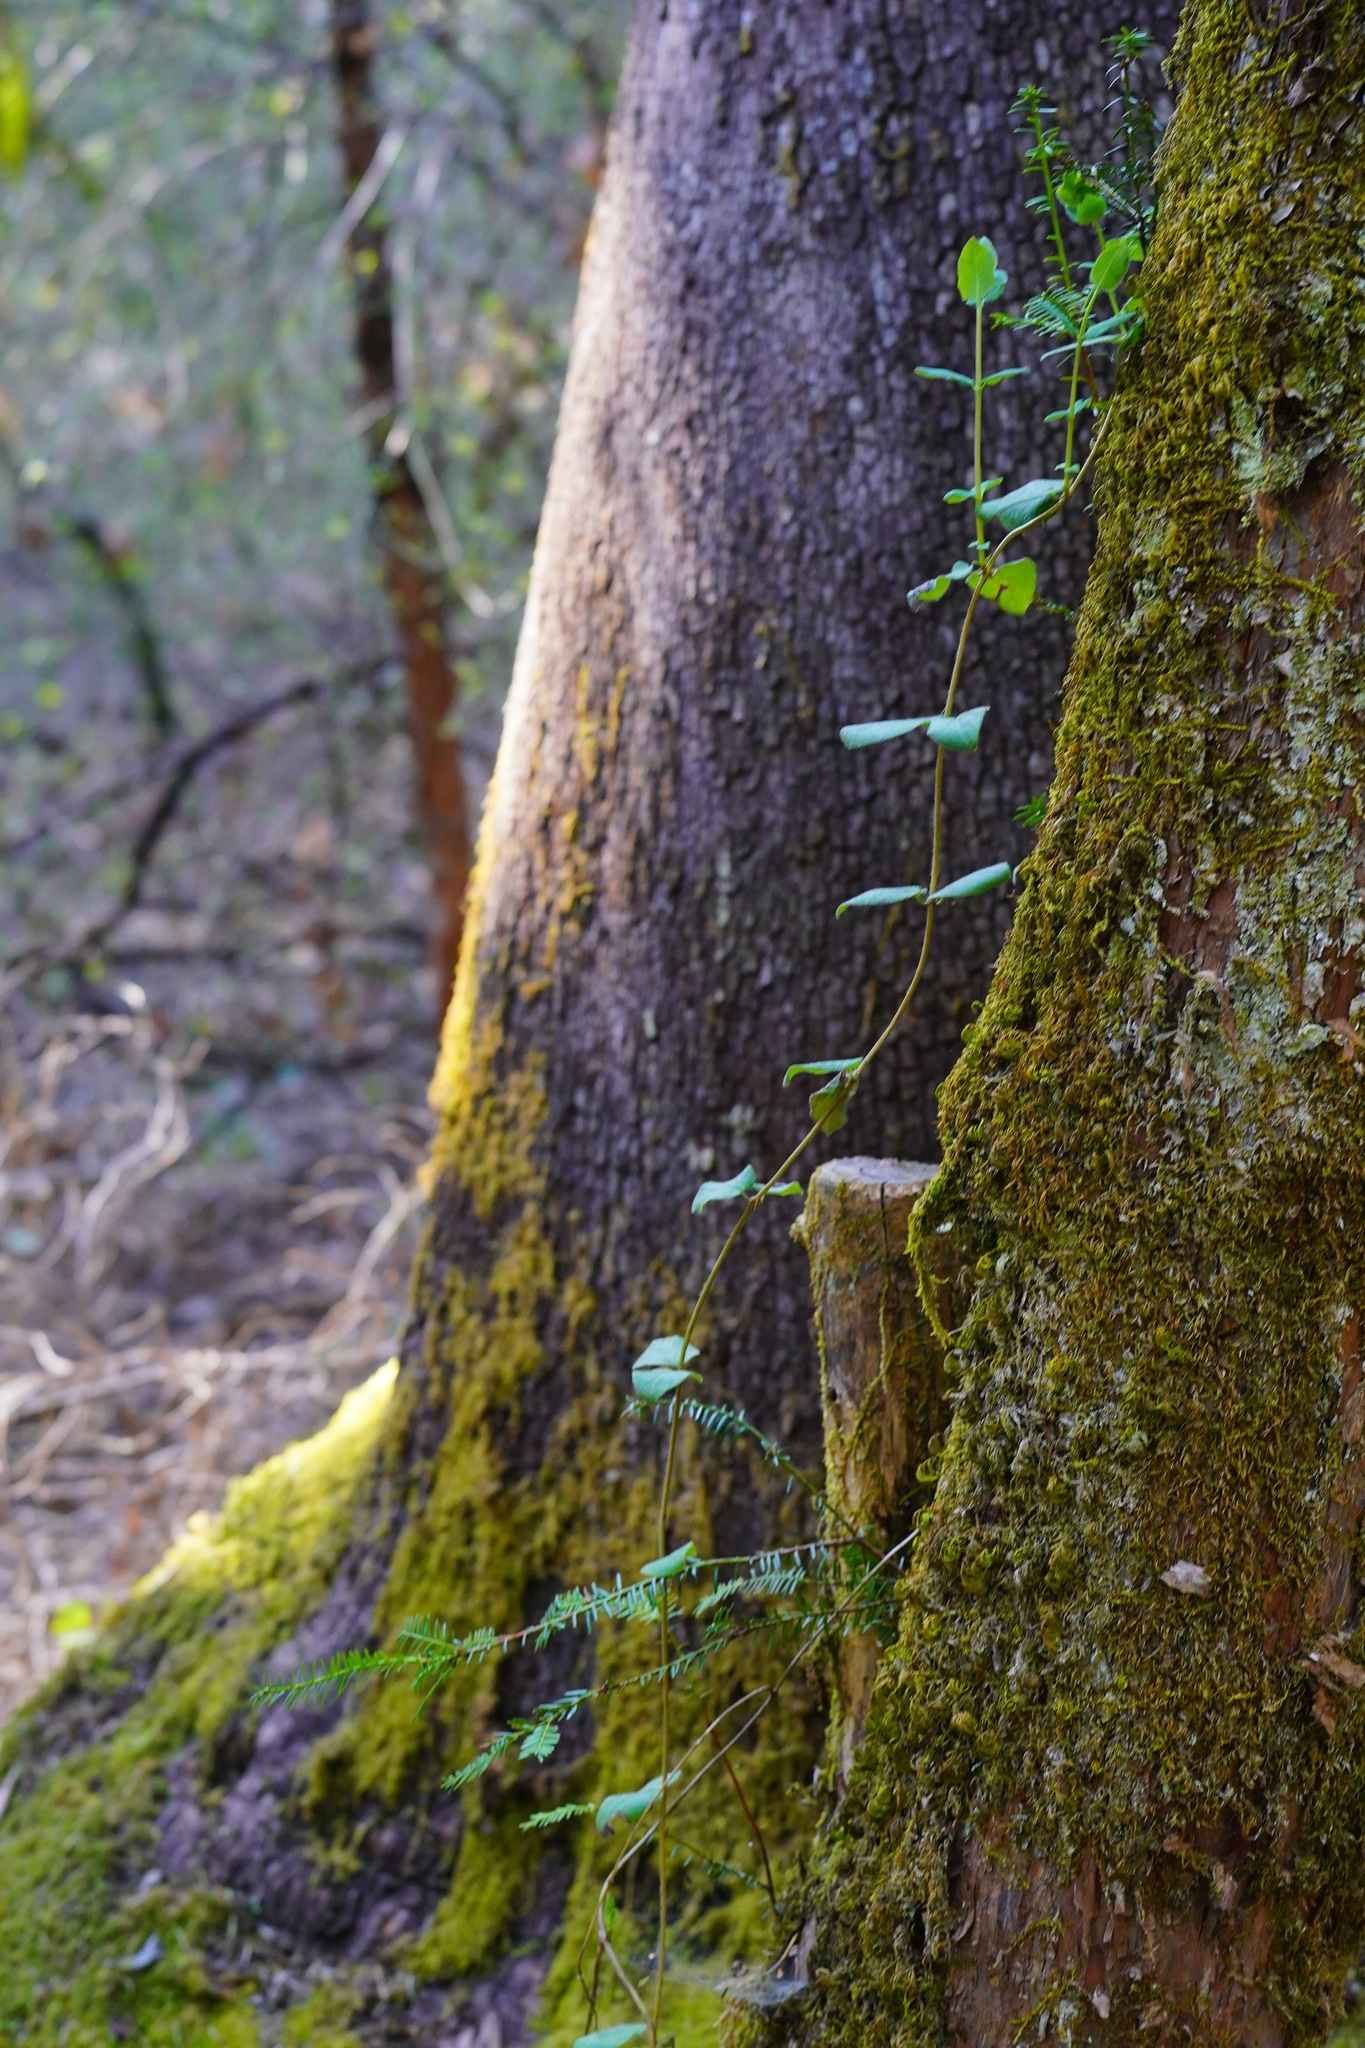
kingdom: Plantae
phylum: Tracheophyta
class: Magnoliopsida
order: Ericales
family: Ericaceae
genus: Arbutus
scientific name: Arbutus menziesii
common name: Pacific madrone
